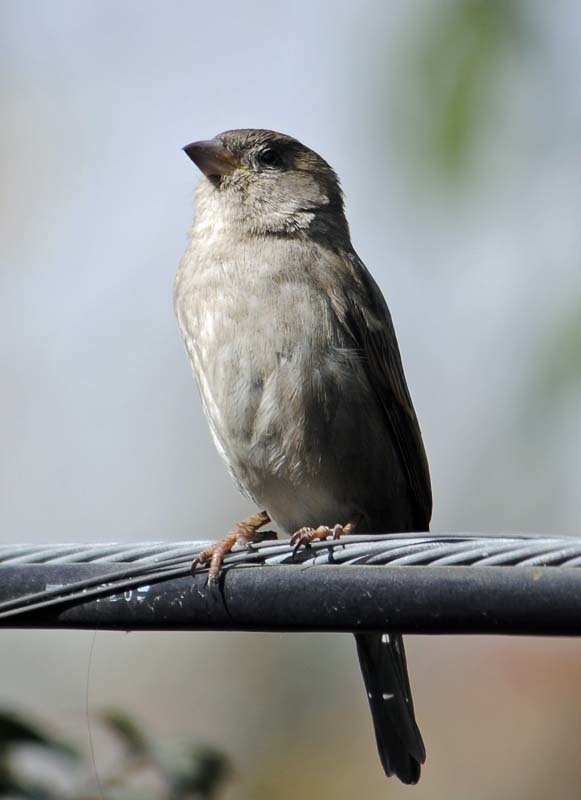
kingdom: Animalia
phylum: Chordata
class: Aves
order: Passeriformes
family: Passeridae
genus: Passer
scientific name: Passer domesticus
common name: House sparrow
